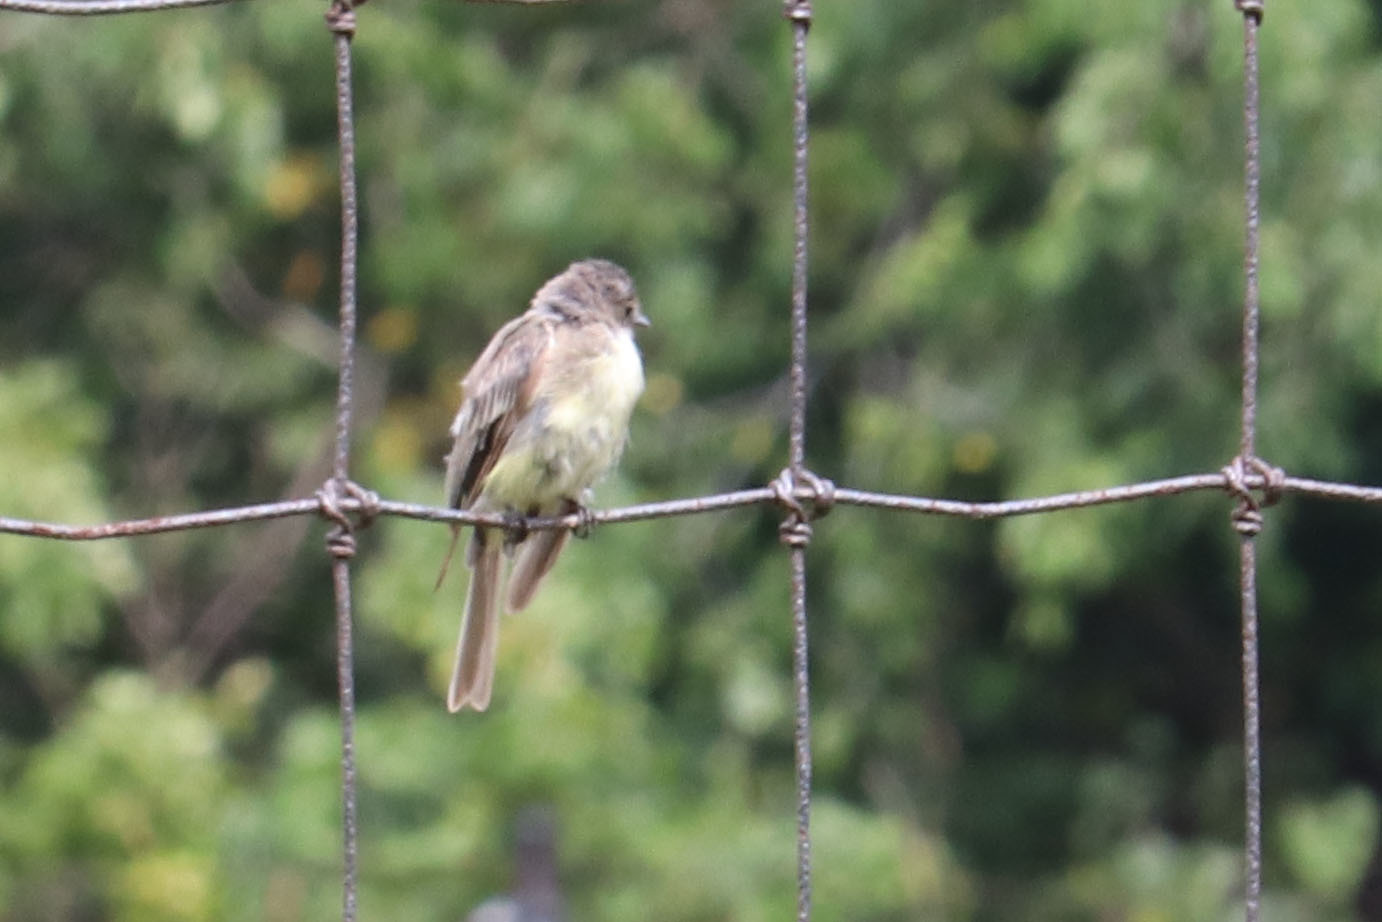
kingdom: Animalia
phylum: Chordata
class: Aves
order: Passeriformes
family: Tyrannidae
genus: Sayornis
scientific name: Sayornis phoebe
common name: Eastern phoebe
